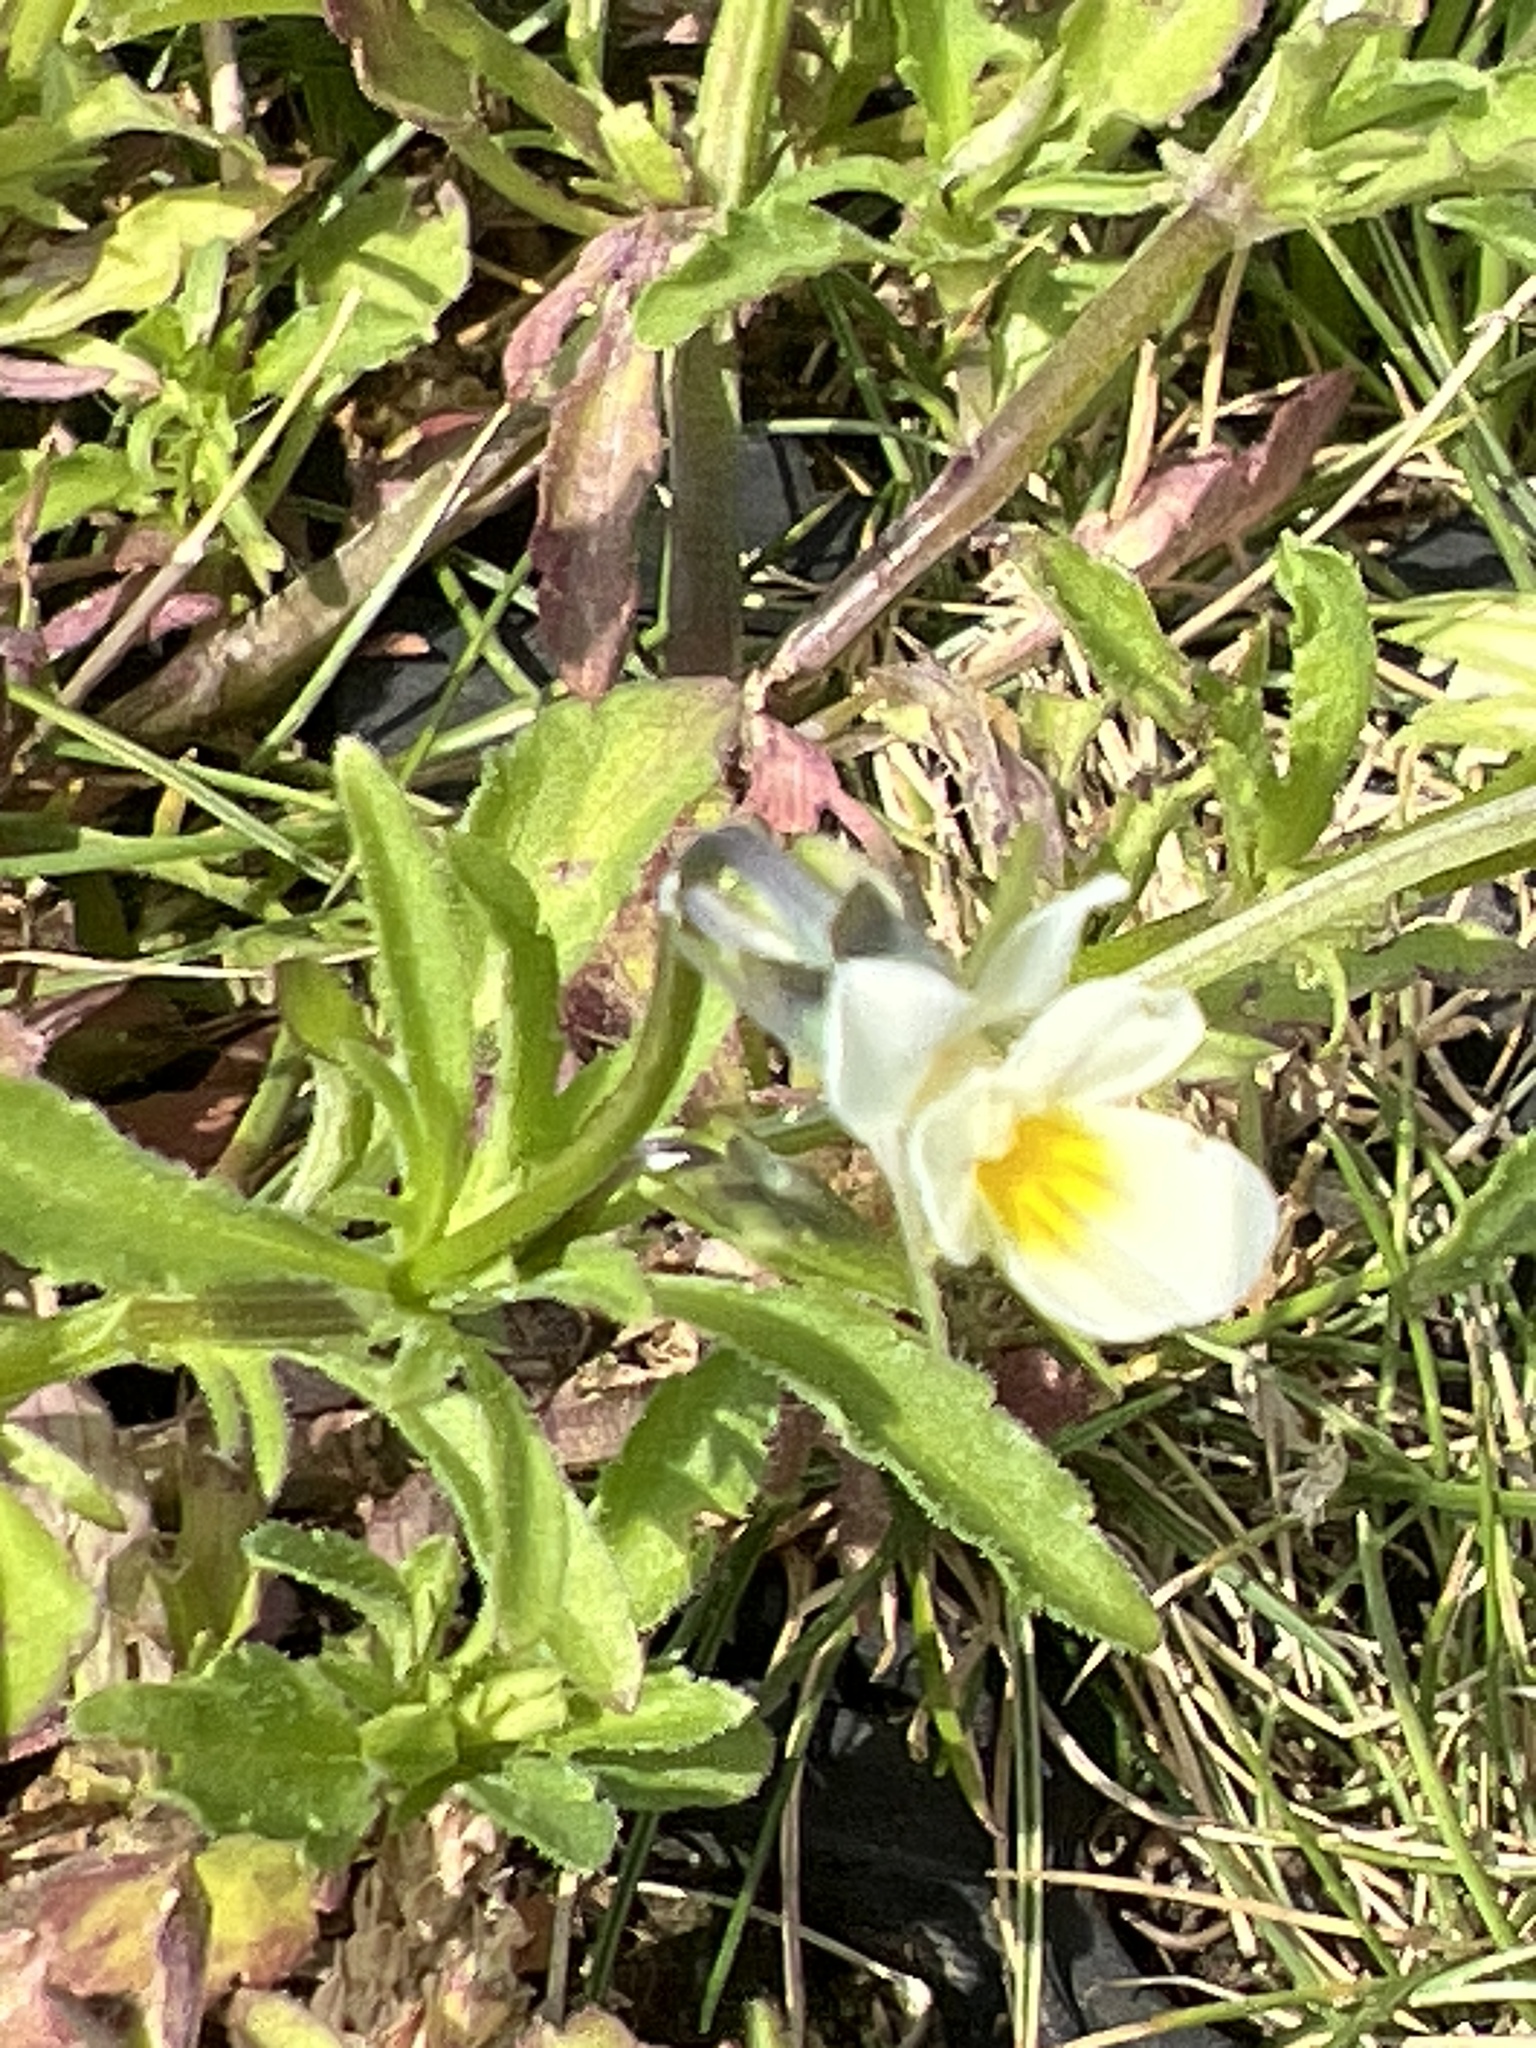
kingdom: Plantae
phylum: Tracheophyta
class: Magnoliopsida
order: Malpighiales
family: Violaceae
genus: Viola
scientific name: Viola arvensis
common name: Field pansy
